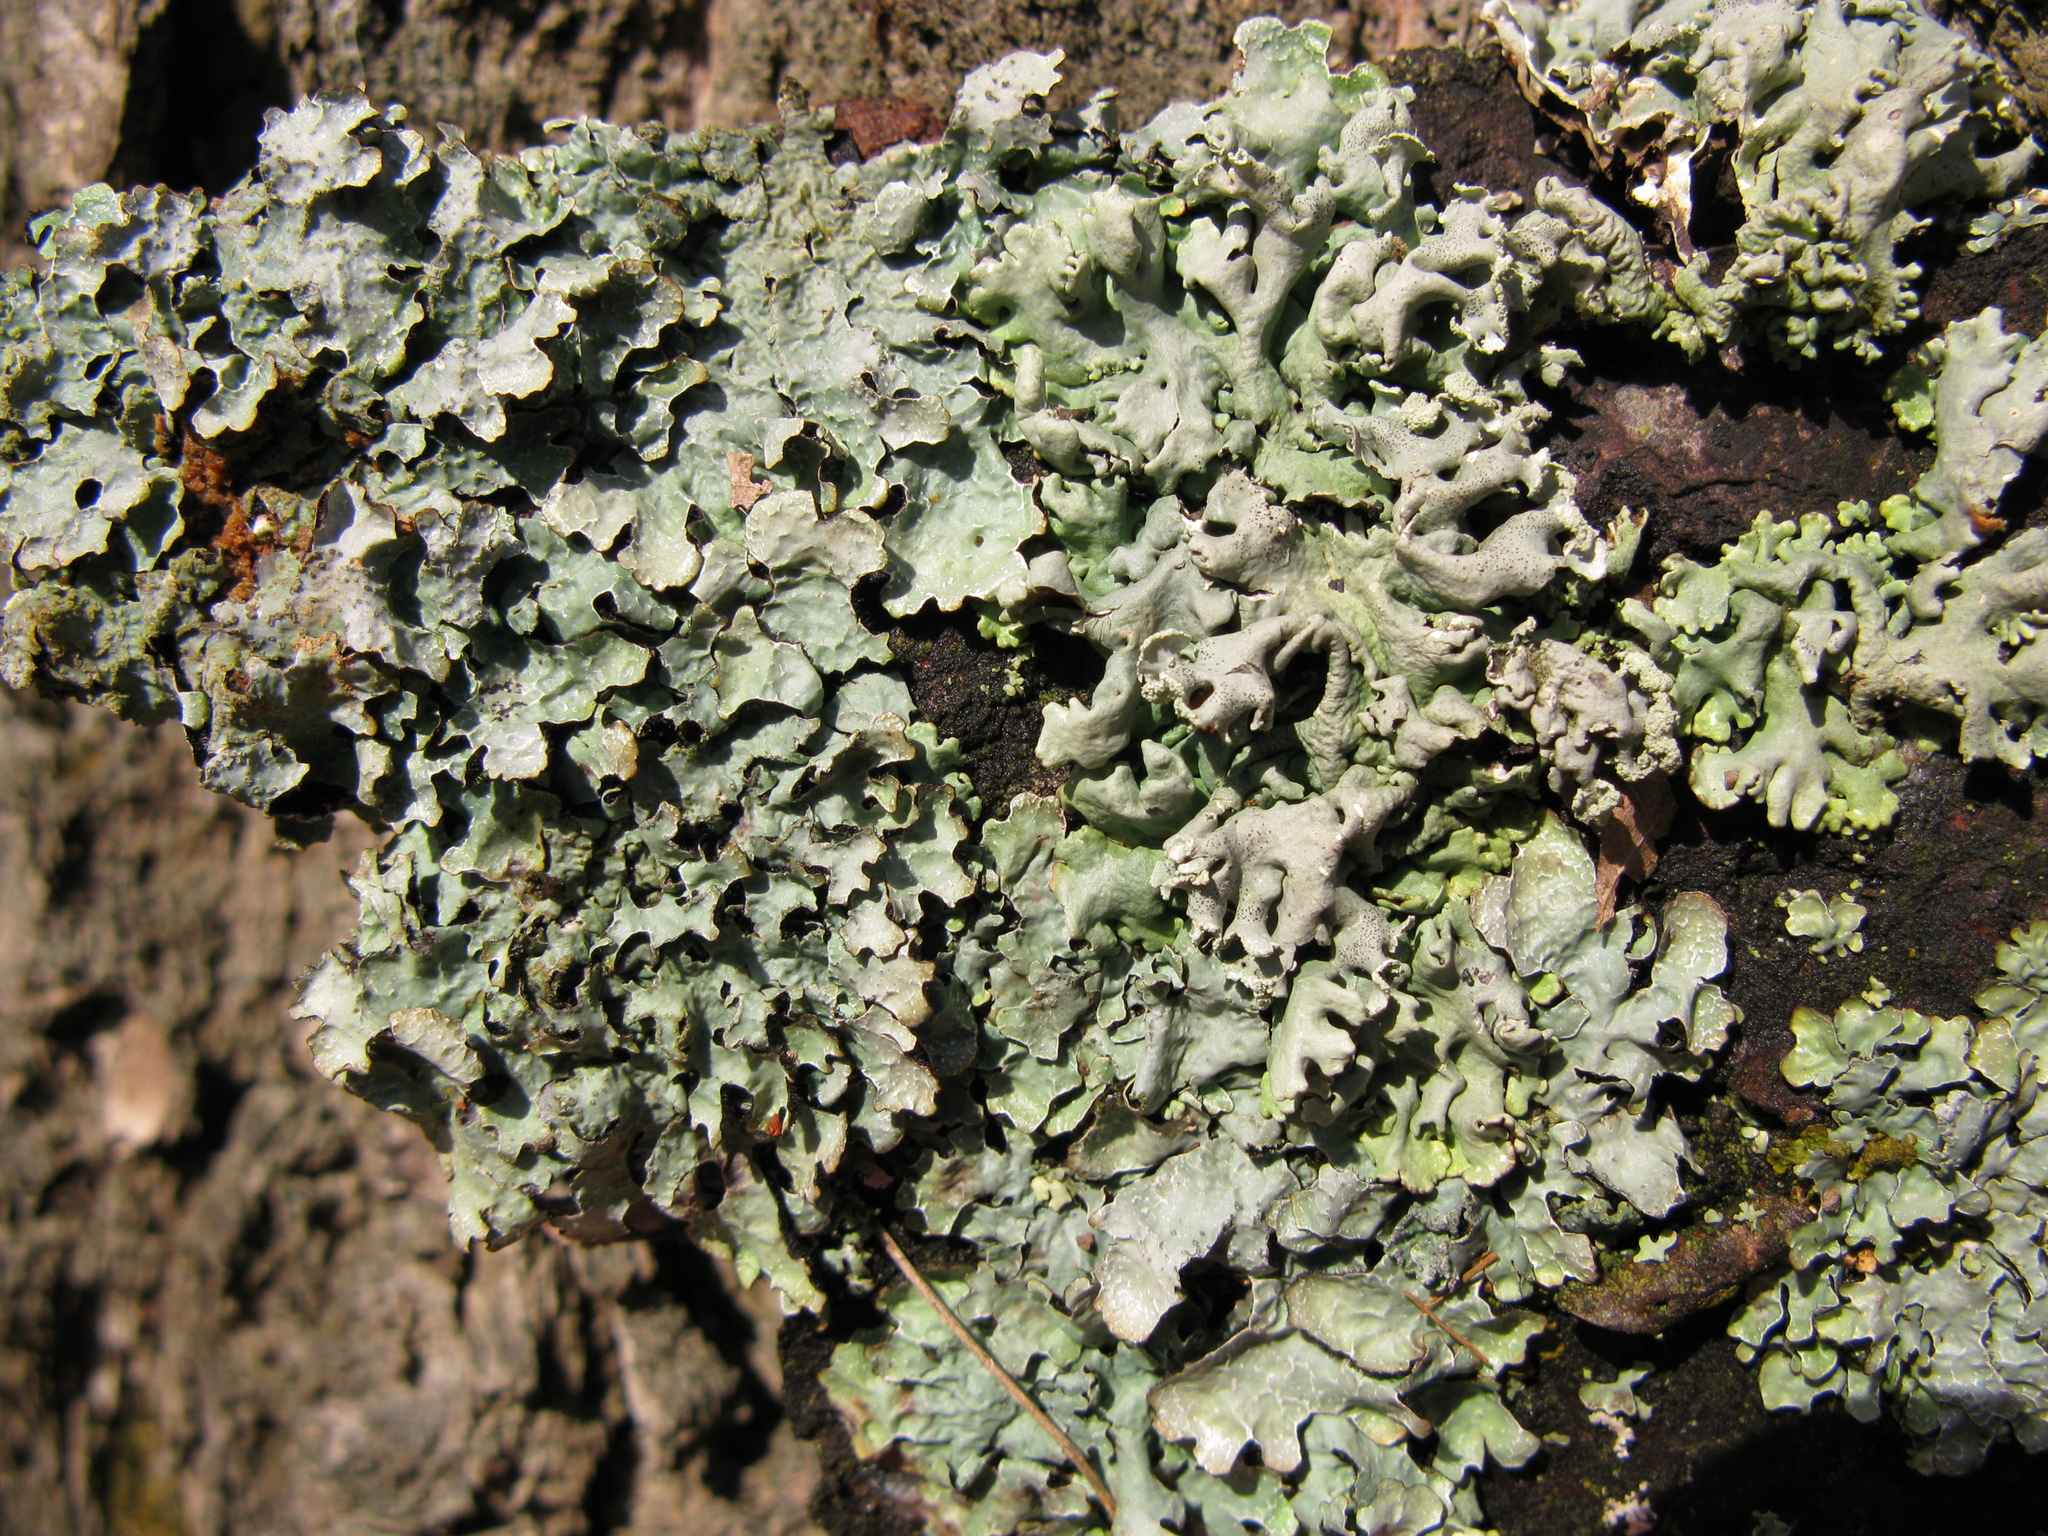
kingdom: Fungi
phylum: Ascomycota
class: Lecanoromycetes
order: Lecanorales
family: Parmeliaceae
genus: Parmelia
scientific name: Parmelia sulcata
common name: Netted shield lichen
